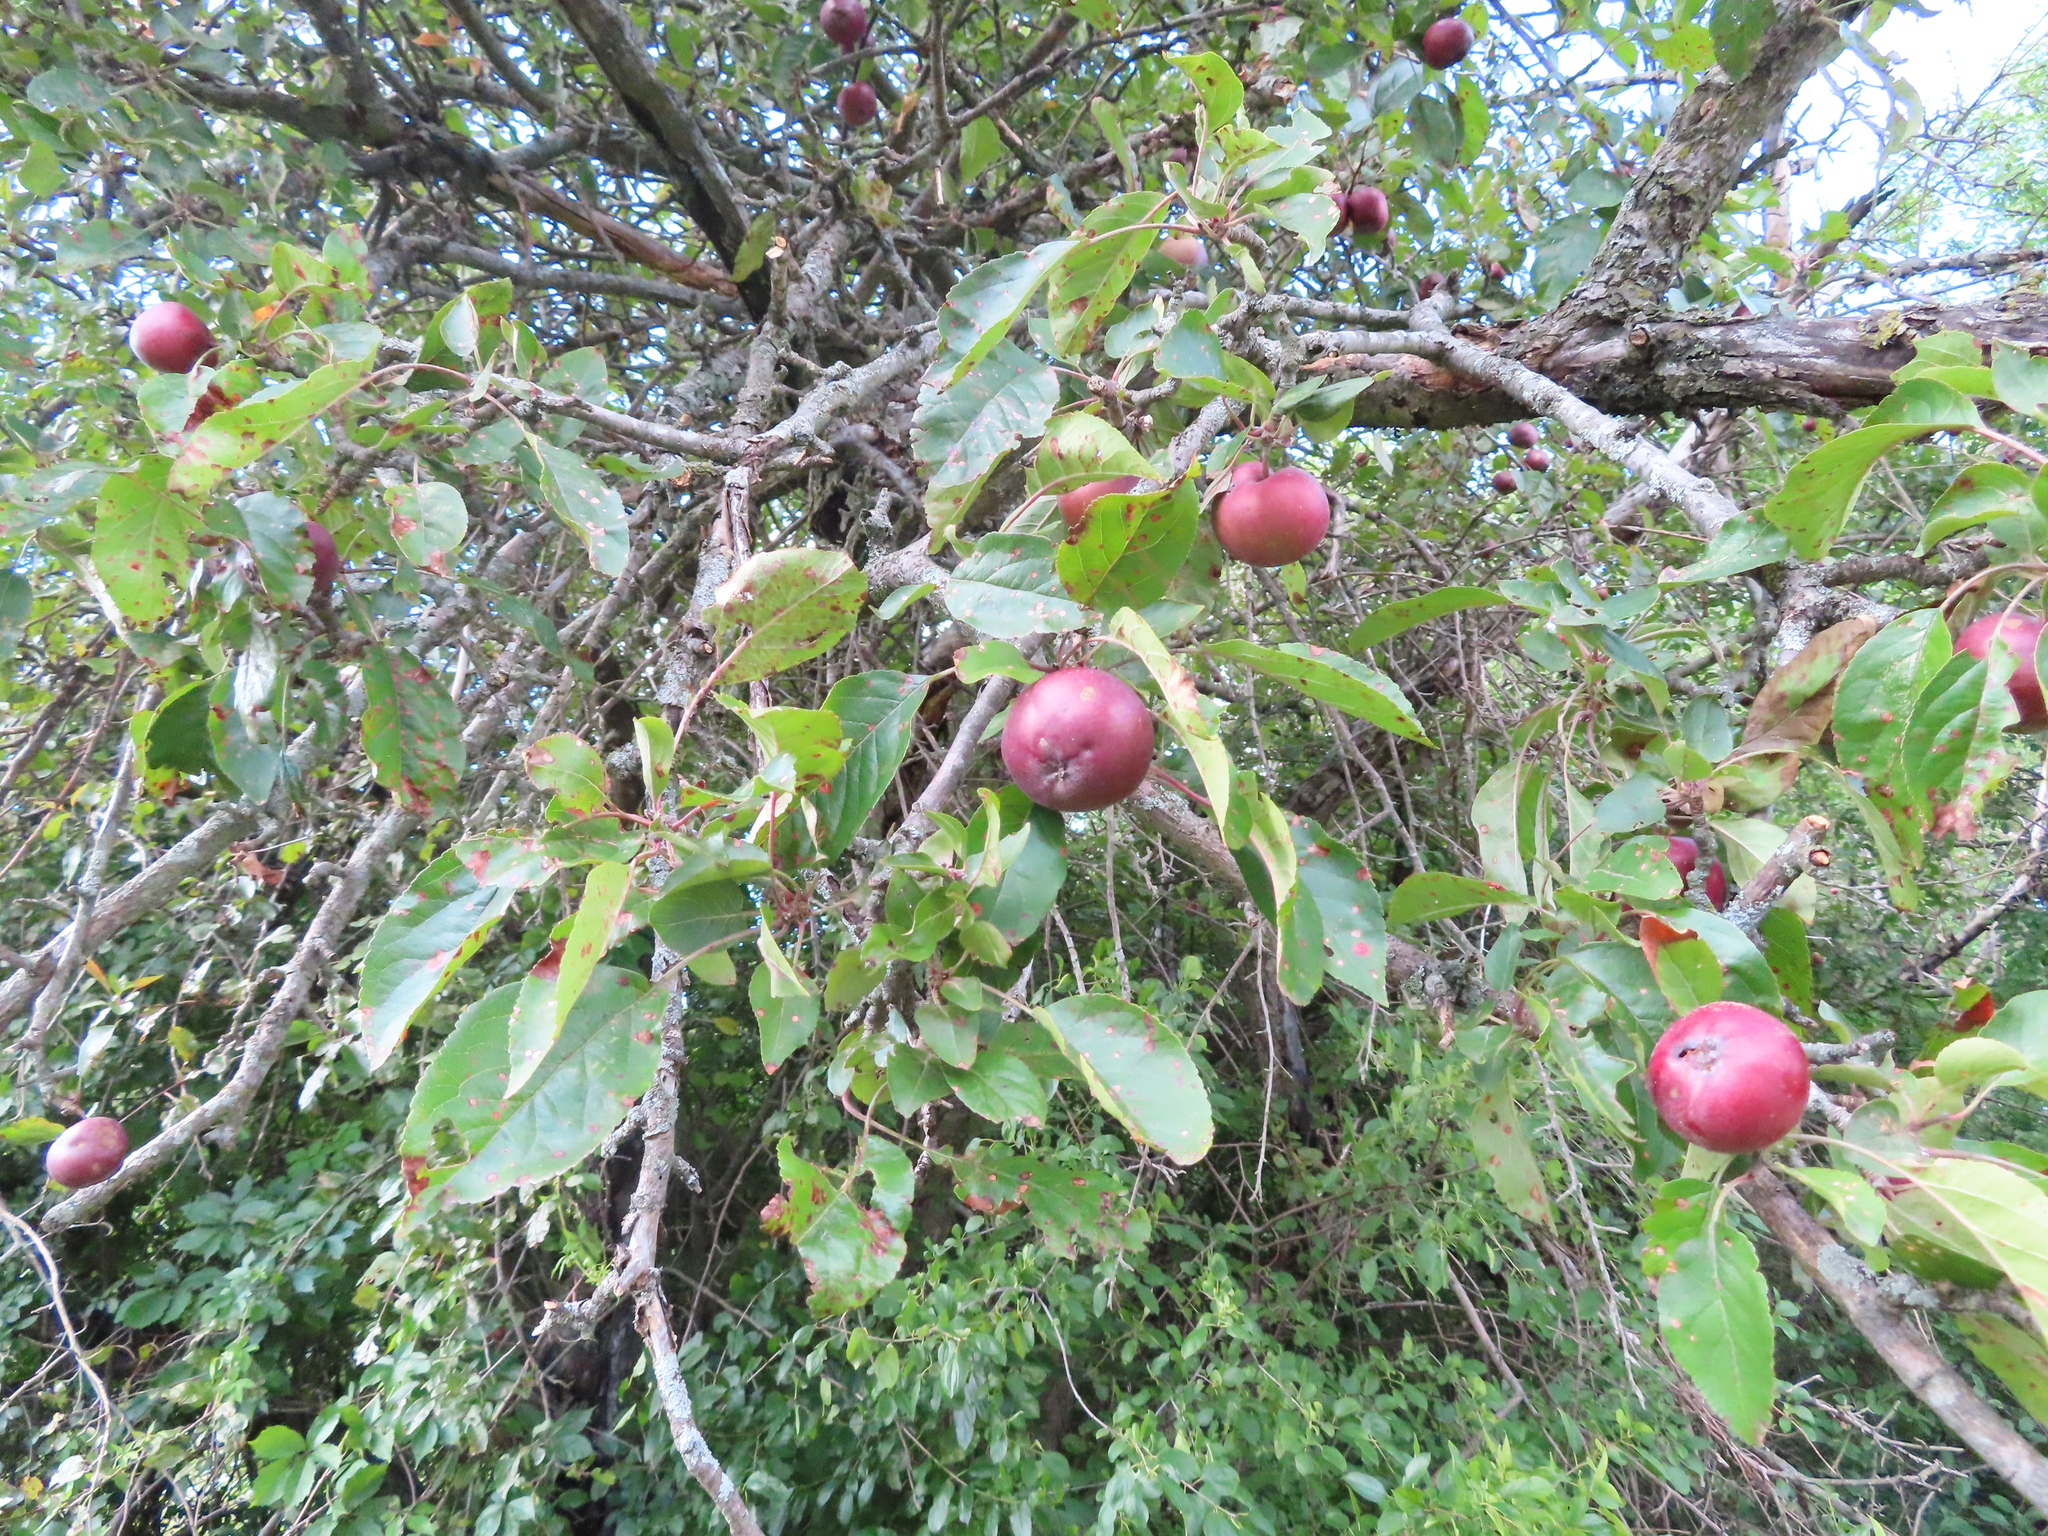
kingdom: Plantae
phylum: Tracheophyta
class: Magnoliopsida
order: Rosales
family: Rosaceae
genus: Malus
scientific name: Malus domestica
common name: Apple
